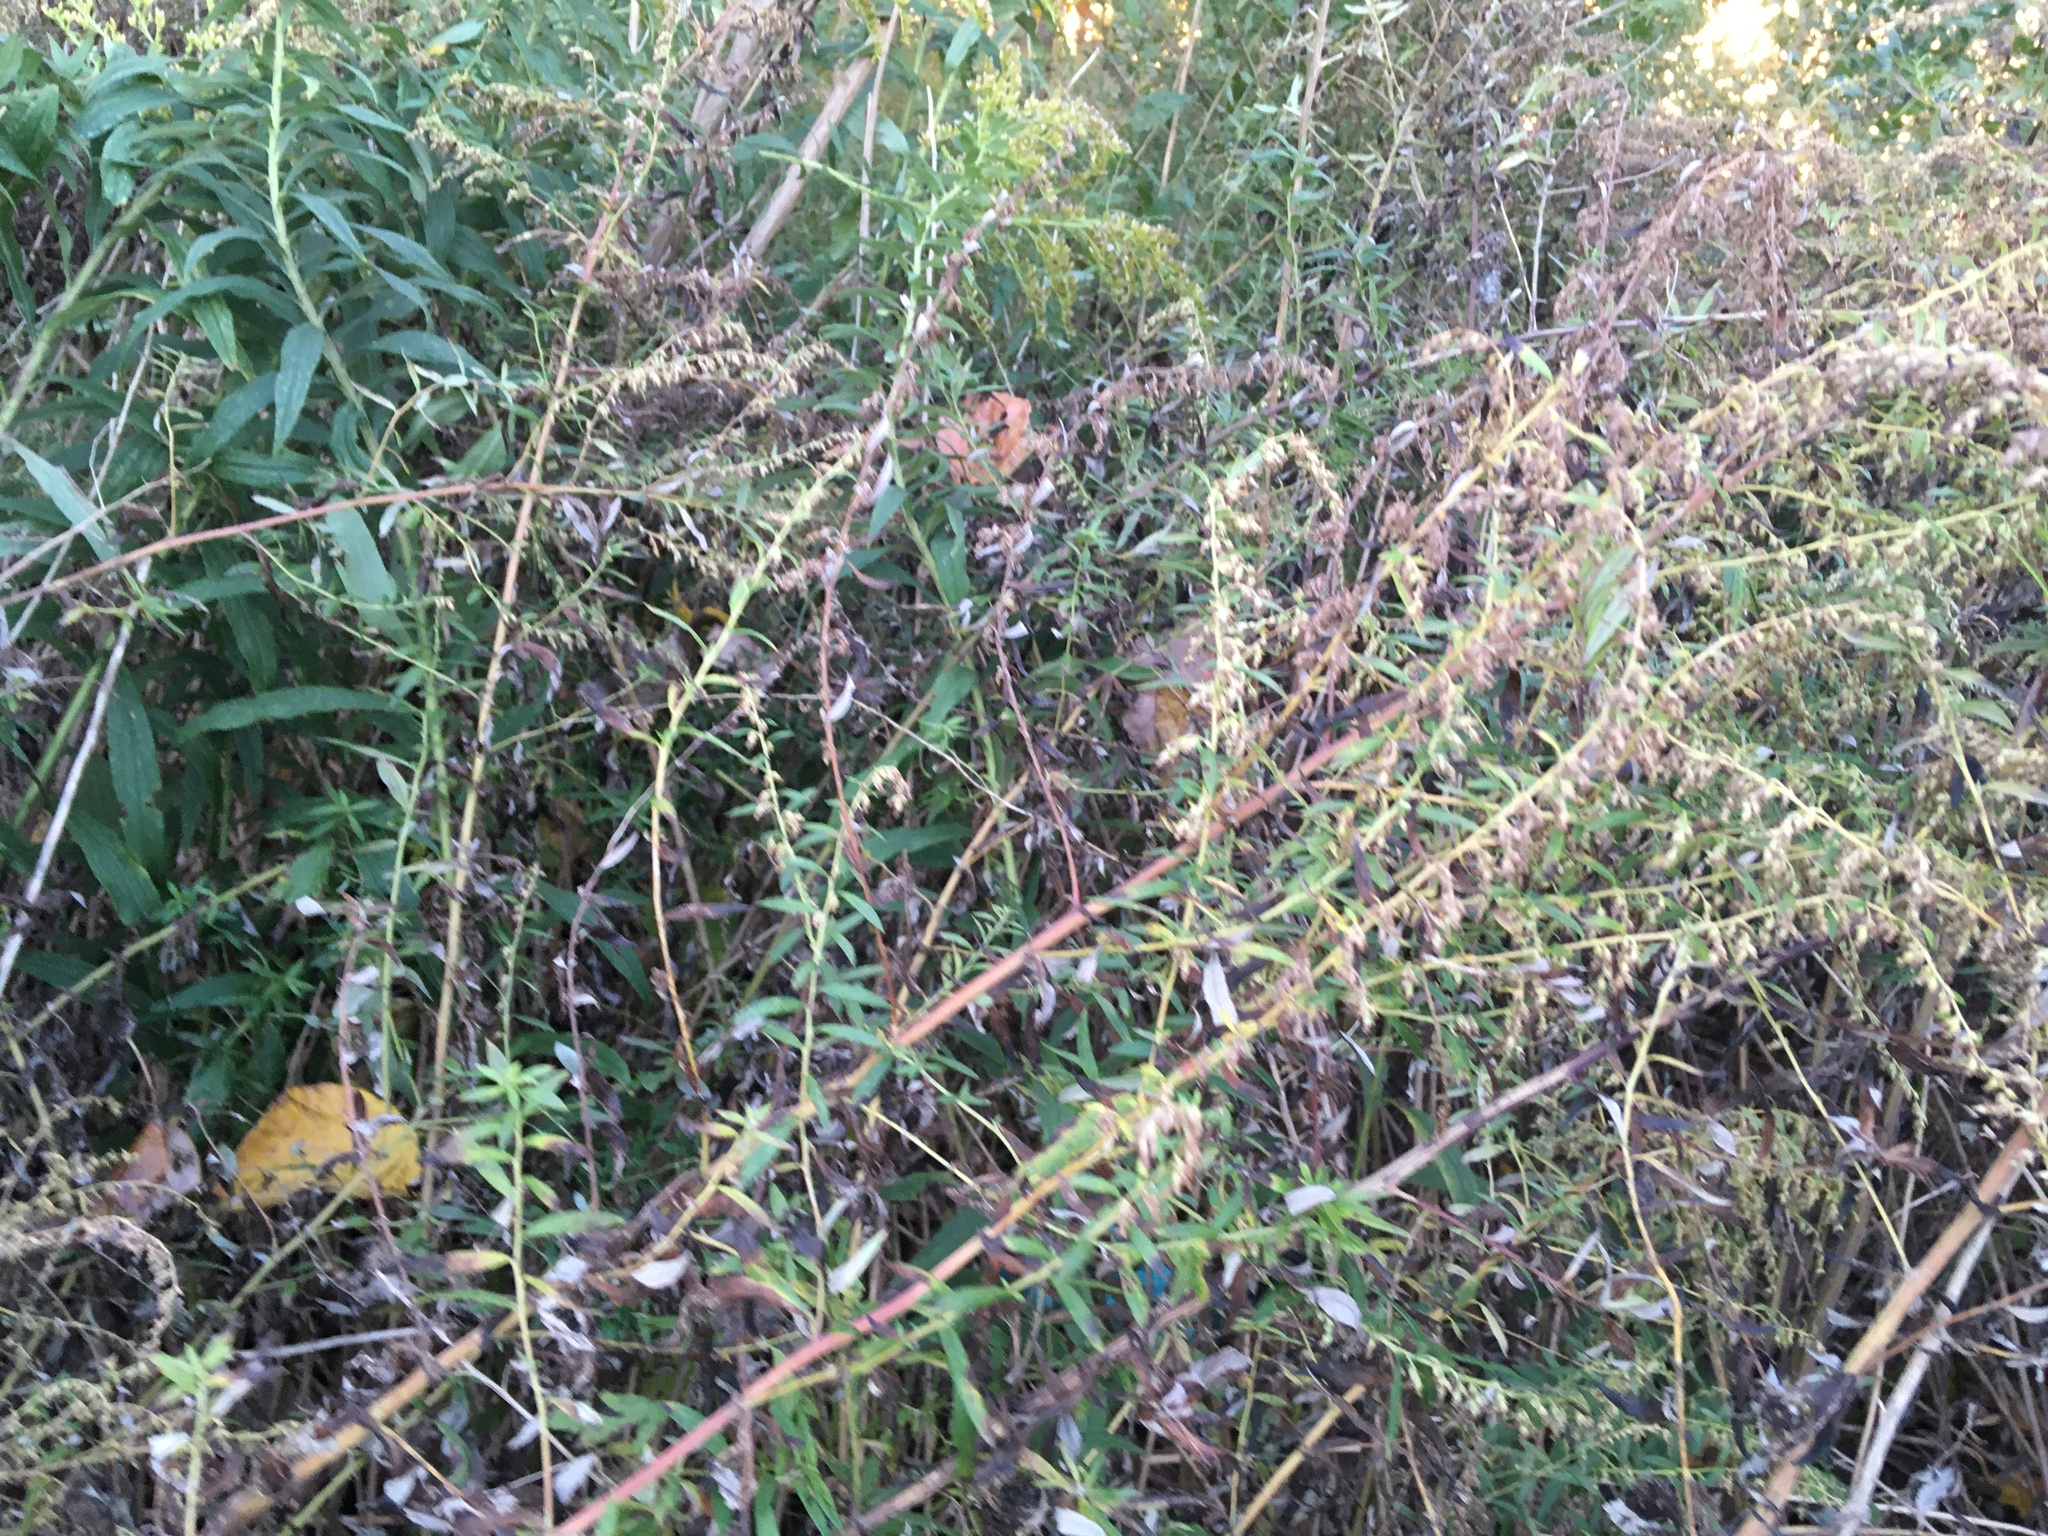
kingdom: Plantae
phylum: Tracheophyta
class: Magnoliopsida
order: Asterales
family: Asteraceae
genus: Artemisia
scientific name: Artemisia vulgaris
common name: Mugwort
